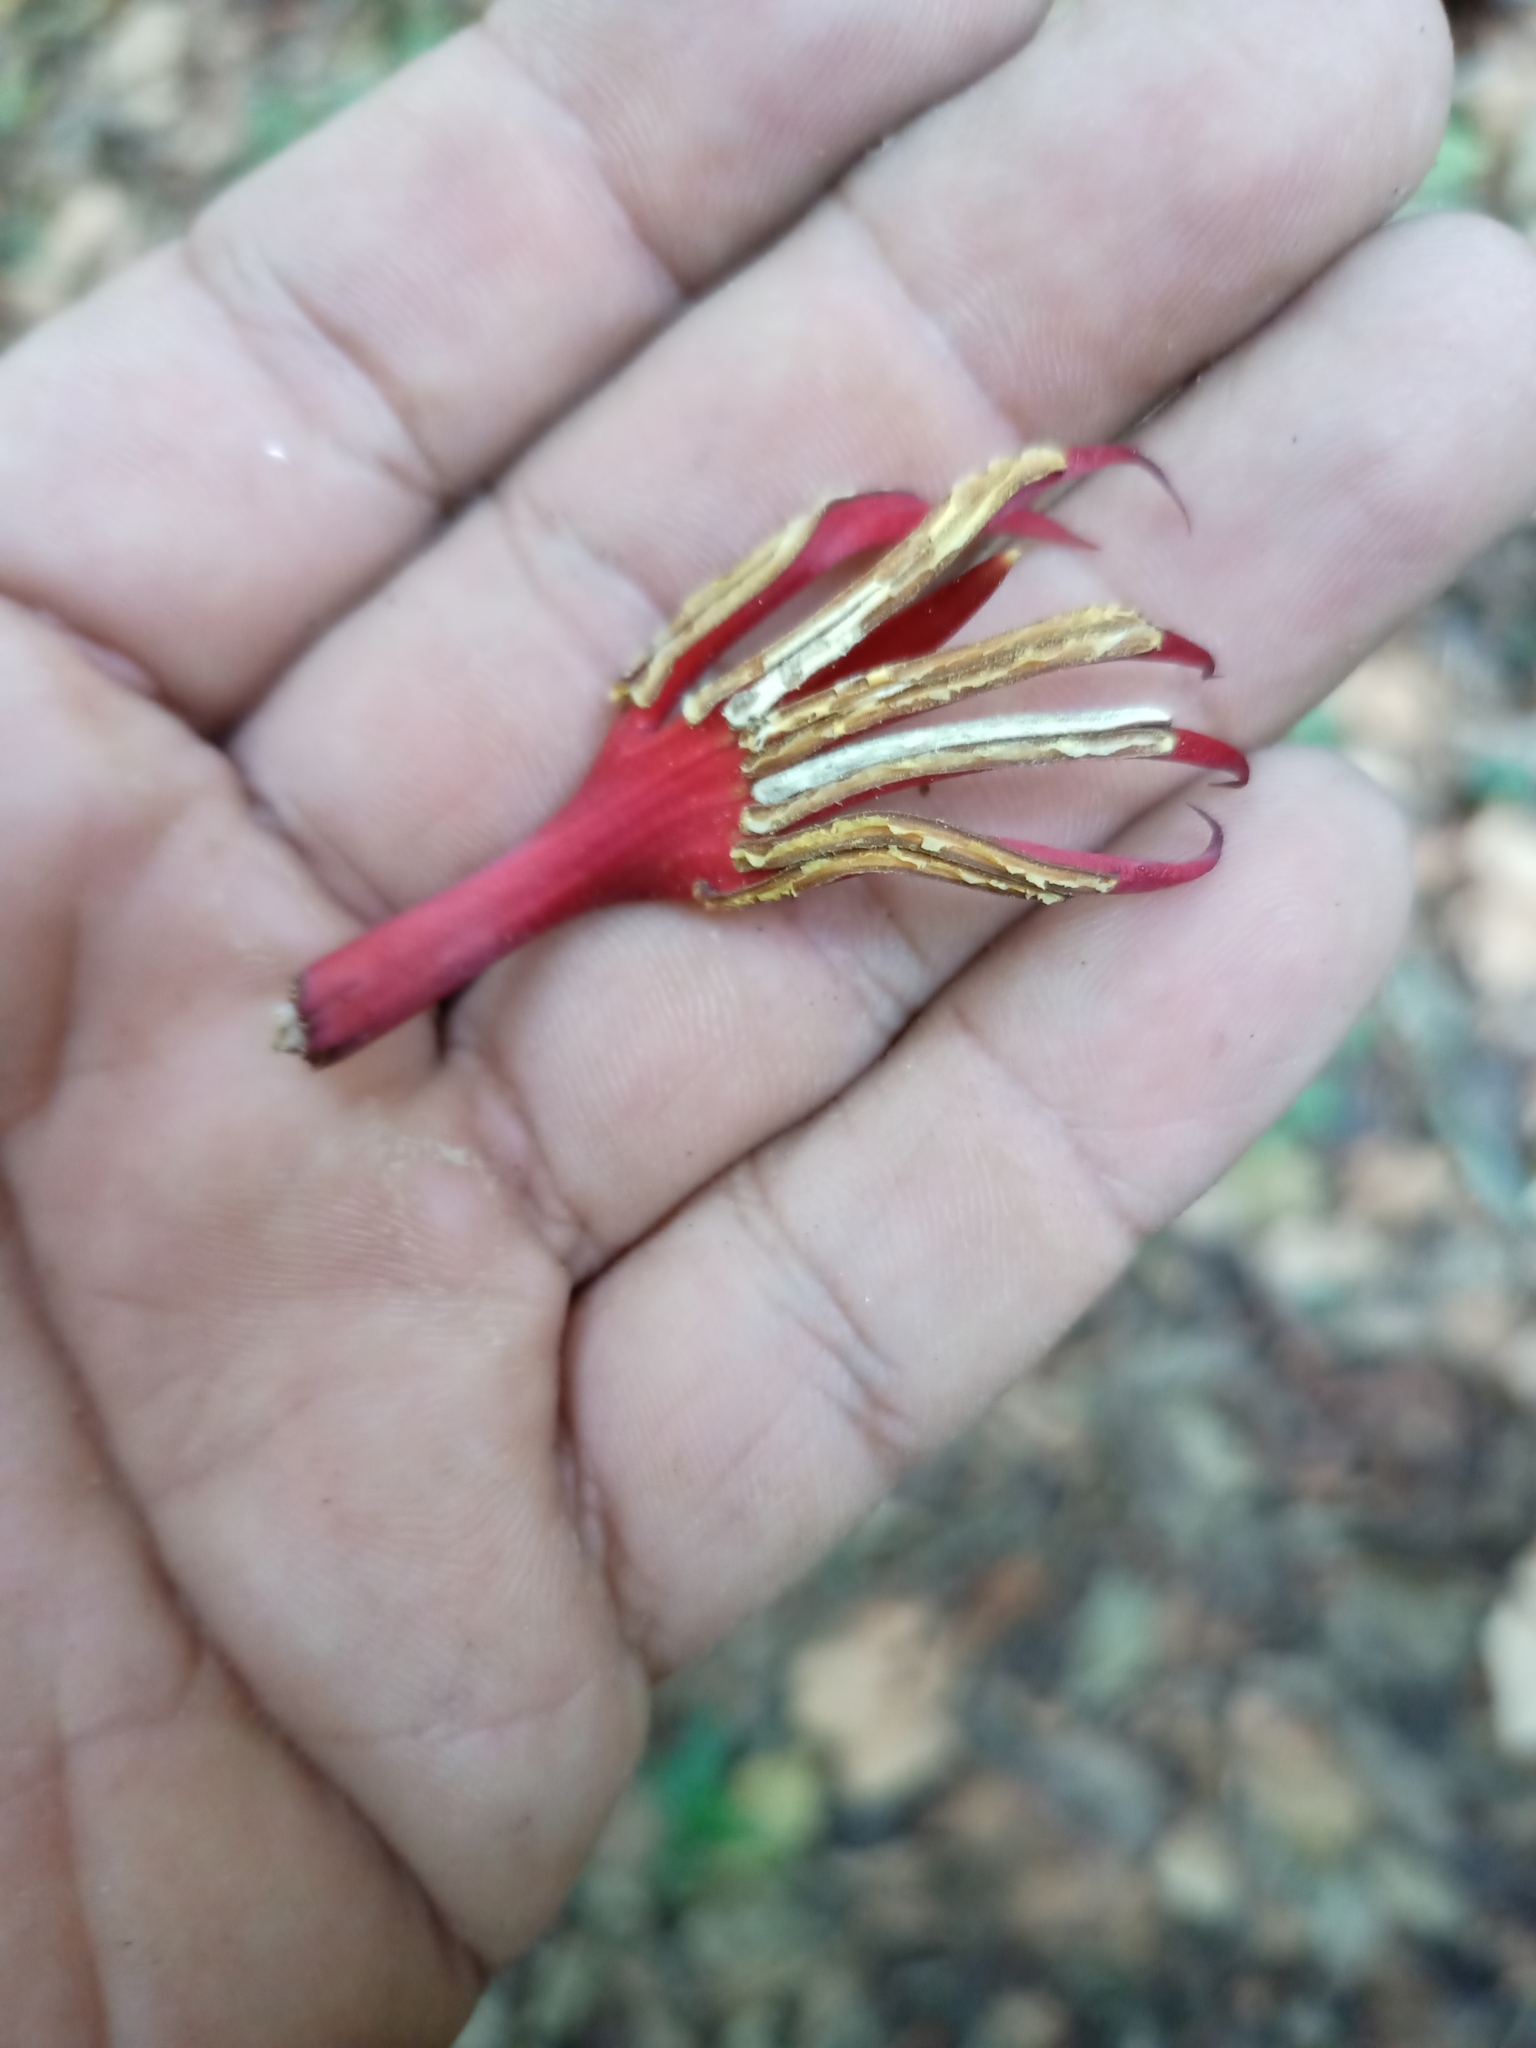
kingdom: Plantae
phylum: Tracheophyta
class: Magnoliopsida
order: Malvales
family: Malvaceae
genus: Chiranthodendron
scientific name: Chiranthodendron pentadactylon
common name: Mexican-hat-plant
